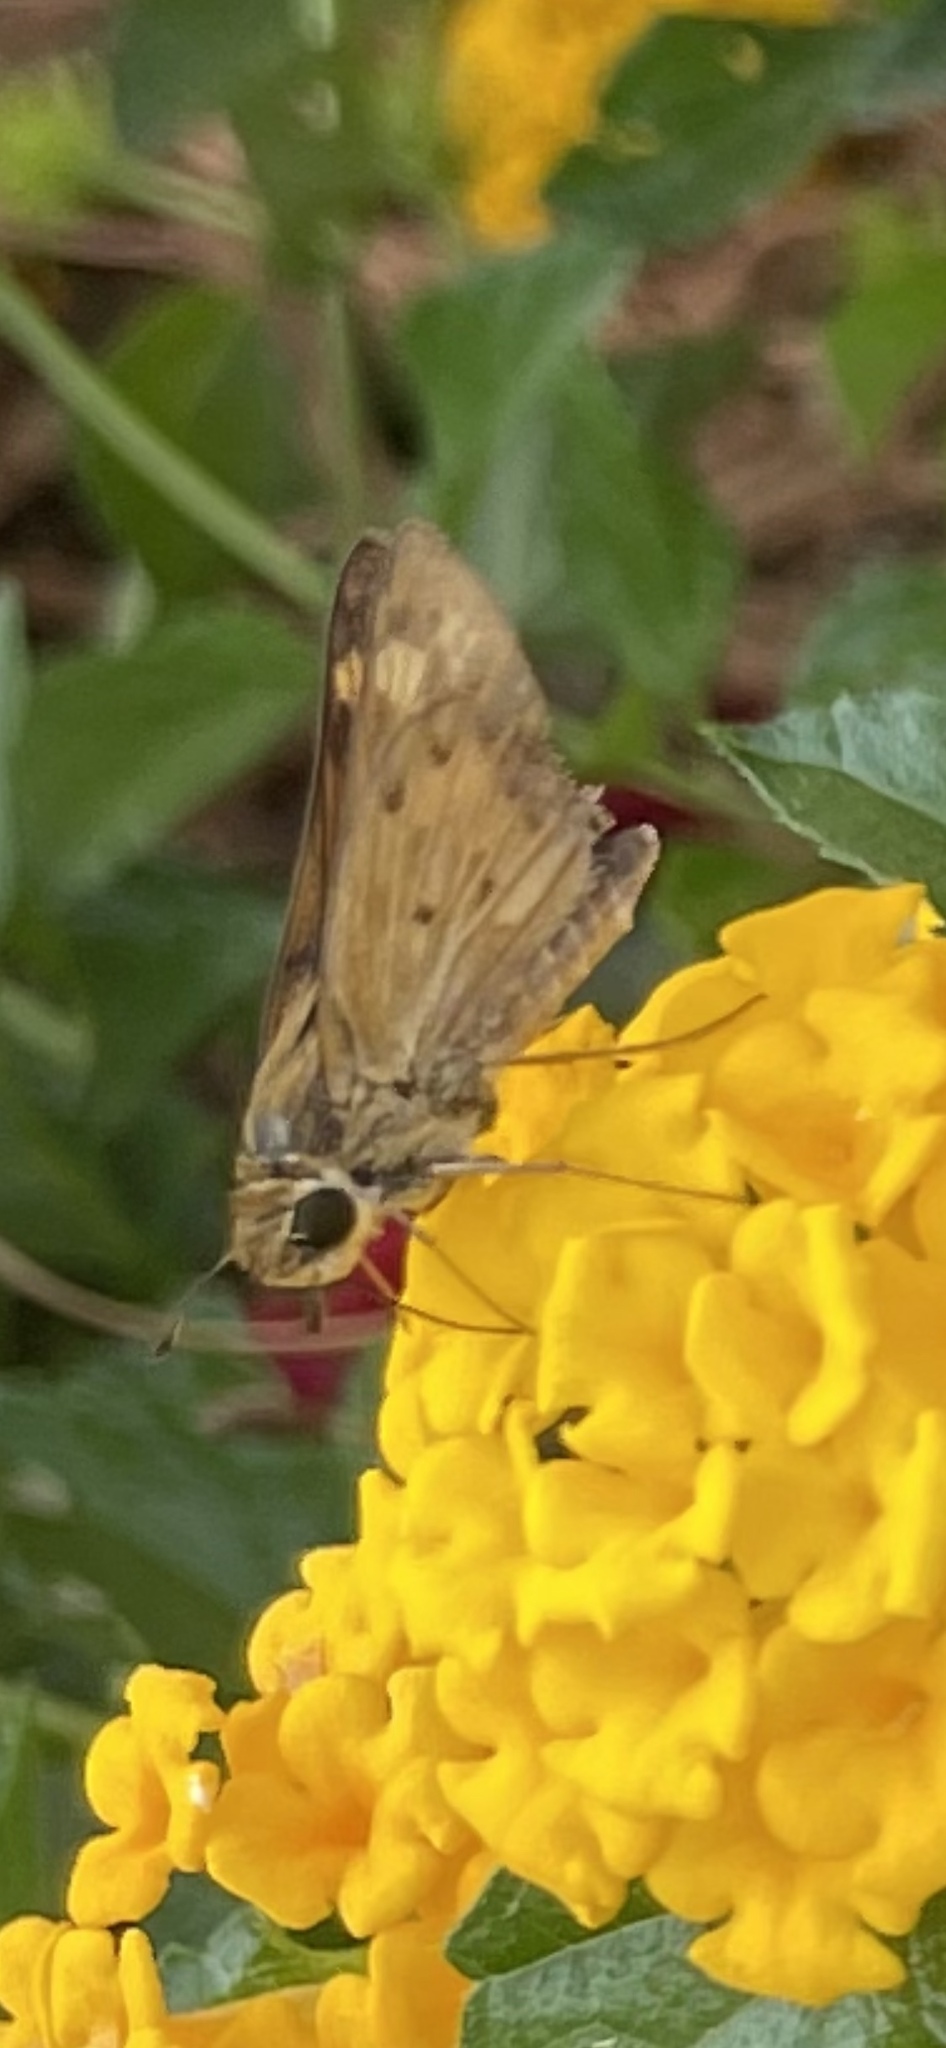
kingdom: Animalia
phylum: Arthropoda
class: Insecta
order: Lepidoptera
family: Hesperiidae
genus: Hylephila
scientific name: Hylephila phyleus
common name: Fiery skipper
